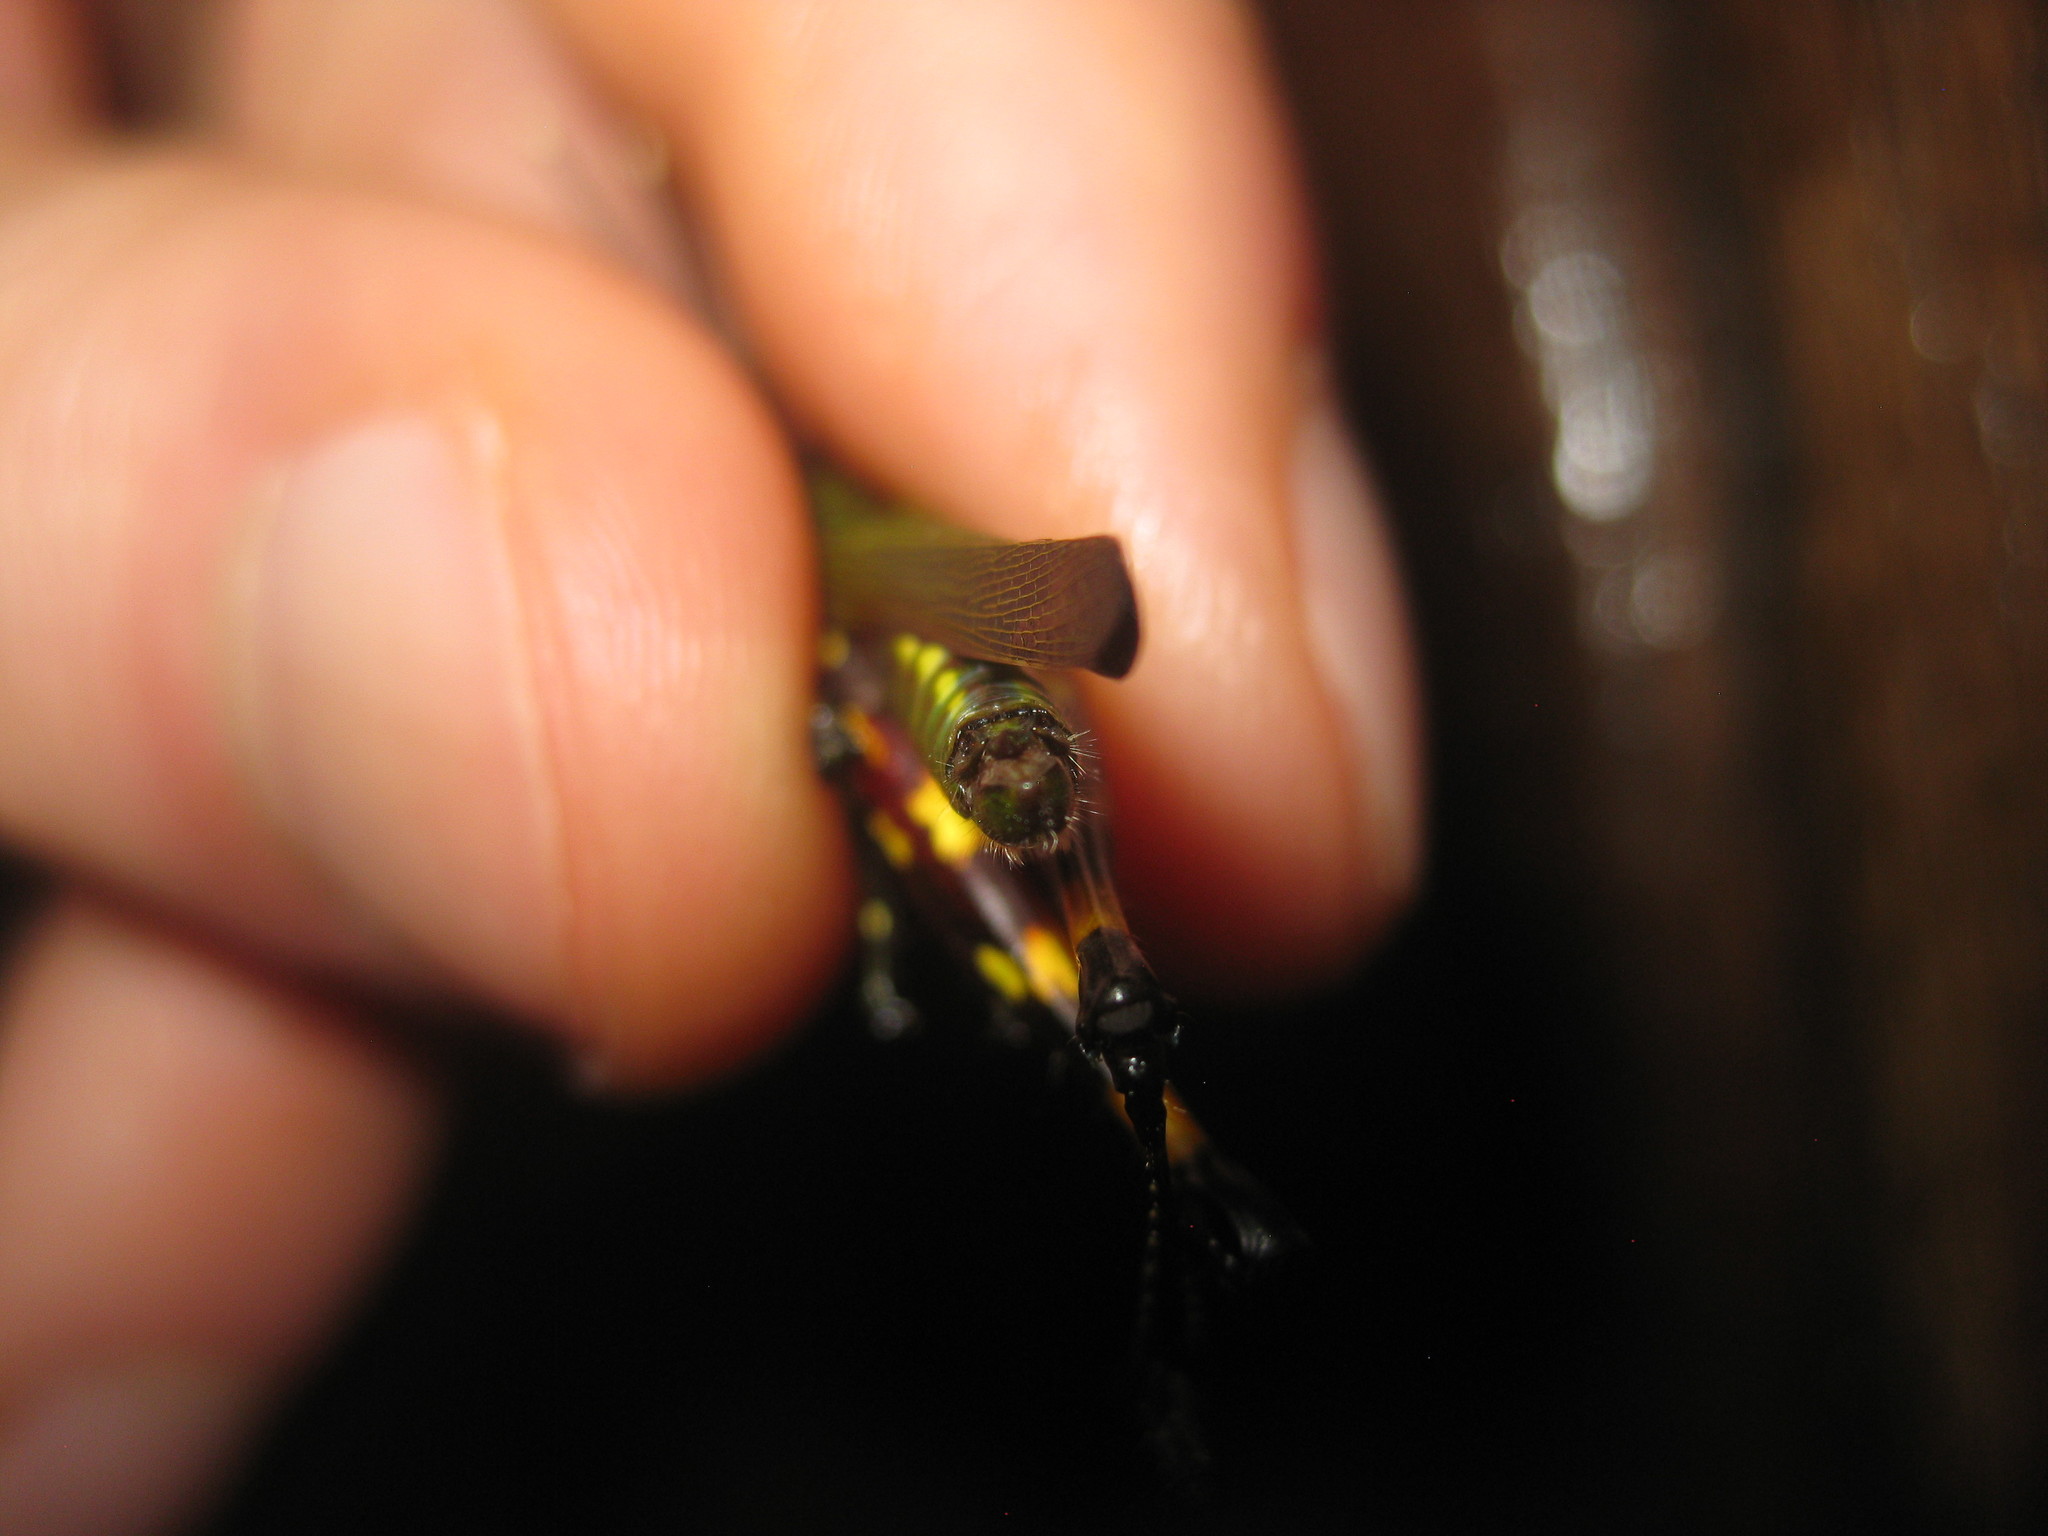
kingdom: Animalia
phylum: Arthropoda
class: Insecta
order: Orthoptera
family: Acrididae
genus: Tetrataenia
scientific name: Tetrataenia surinama
